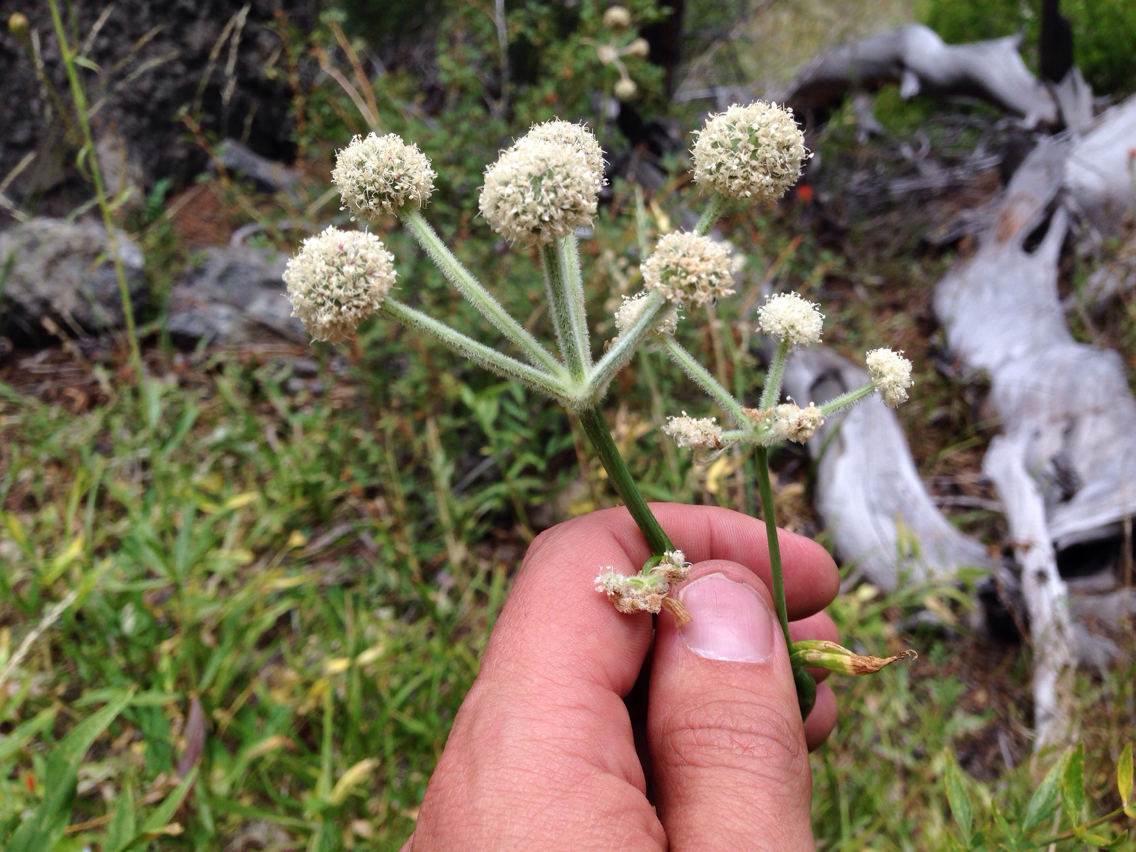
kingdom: Plantae
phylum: Tracheophyta
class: Magnoliopsida
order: Apiales
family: Apiaceae
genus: Angelica
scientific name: Angelica capitellata
